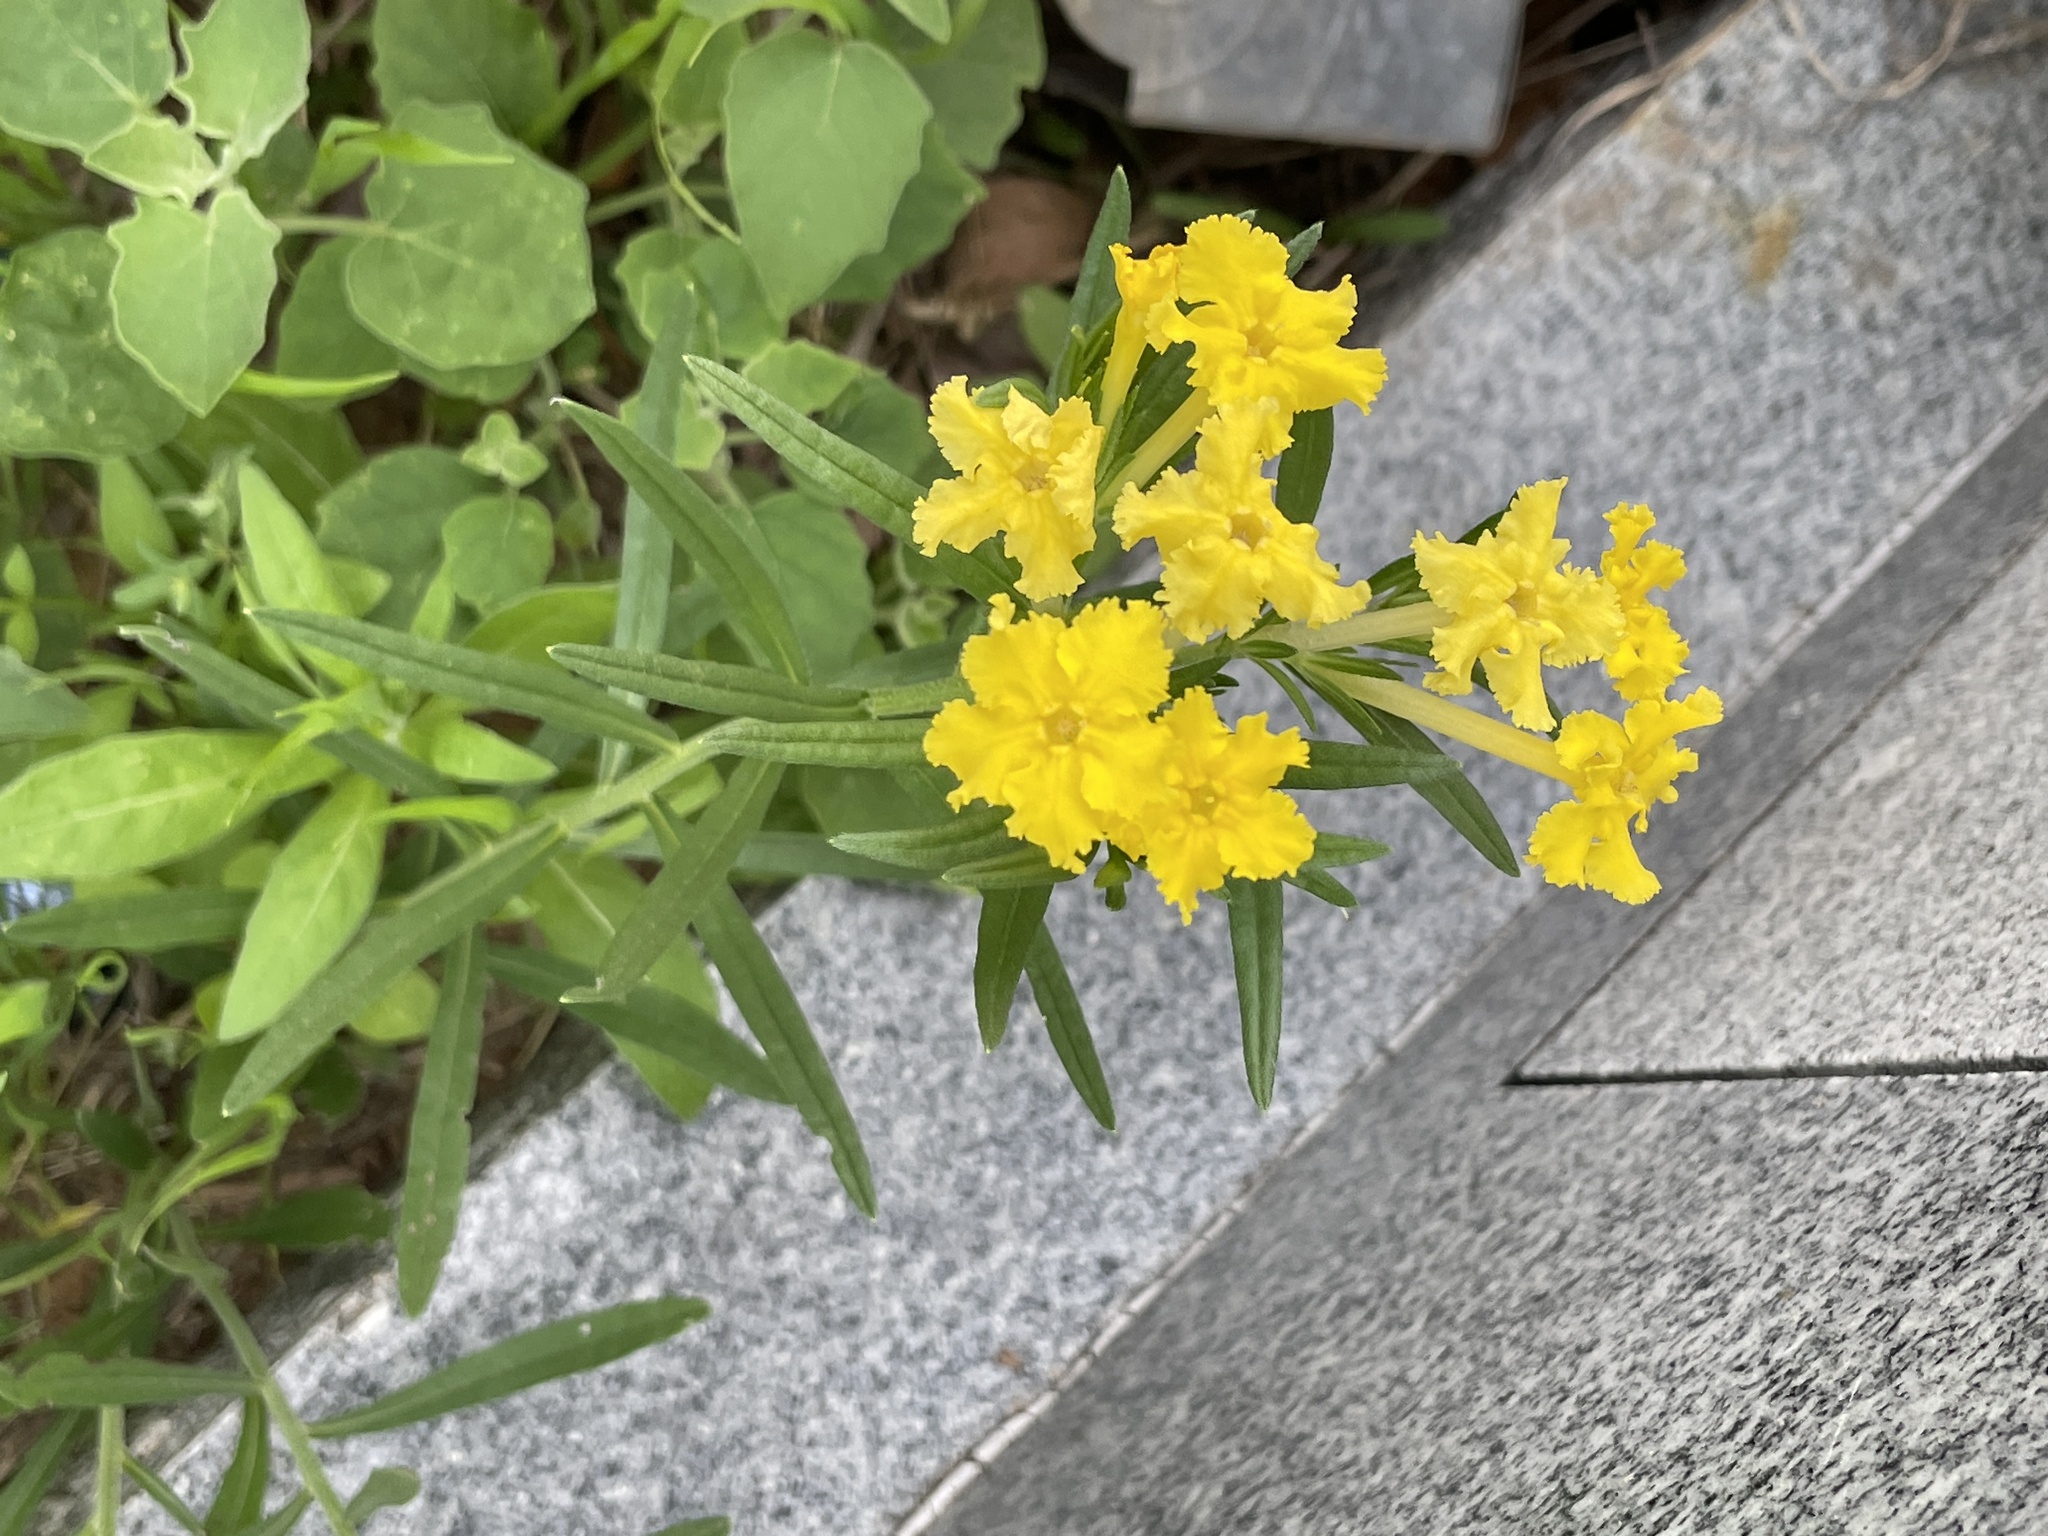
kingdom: Plantae
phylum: Tracheophyta
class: Magnoliopsida
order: Boraginales
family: Boraginaceae
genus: Lithospermum
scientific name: Lithospermum incisum
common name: Fringed gromwell
